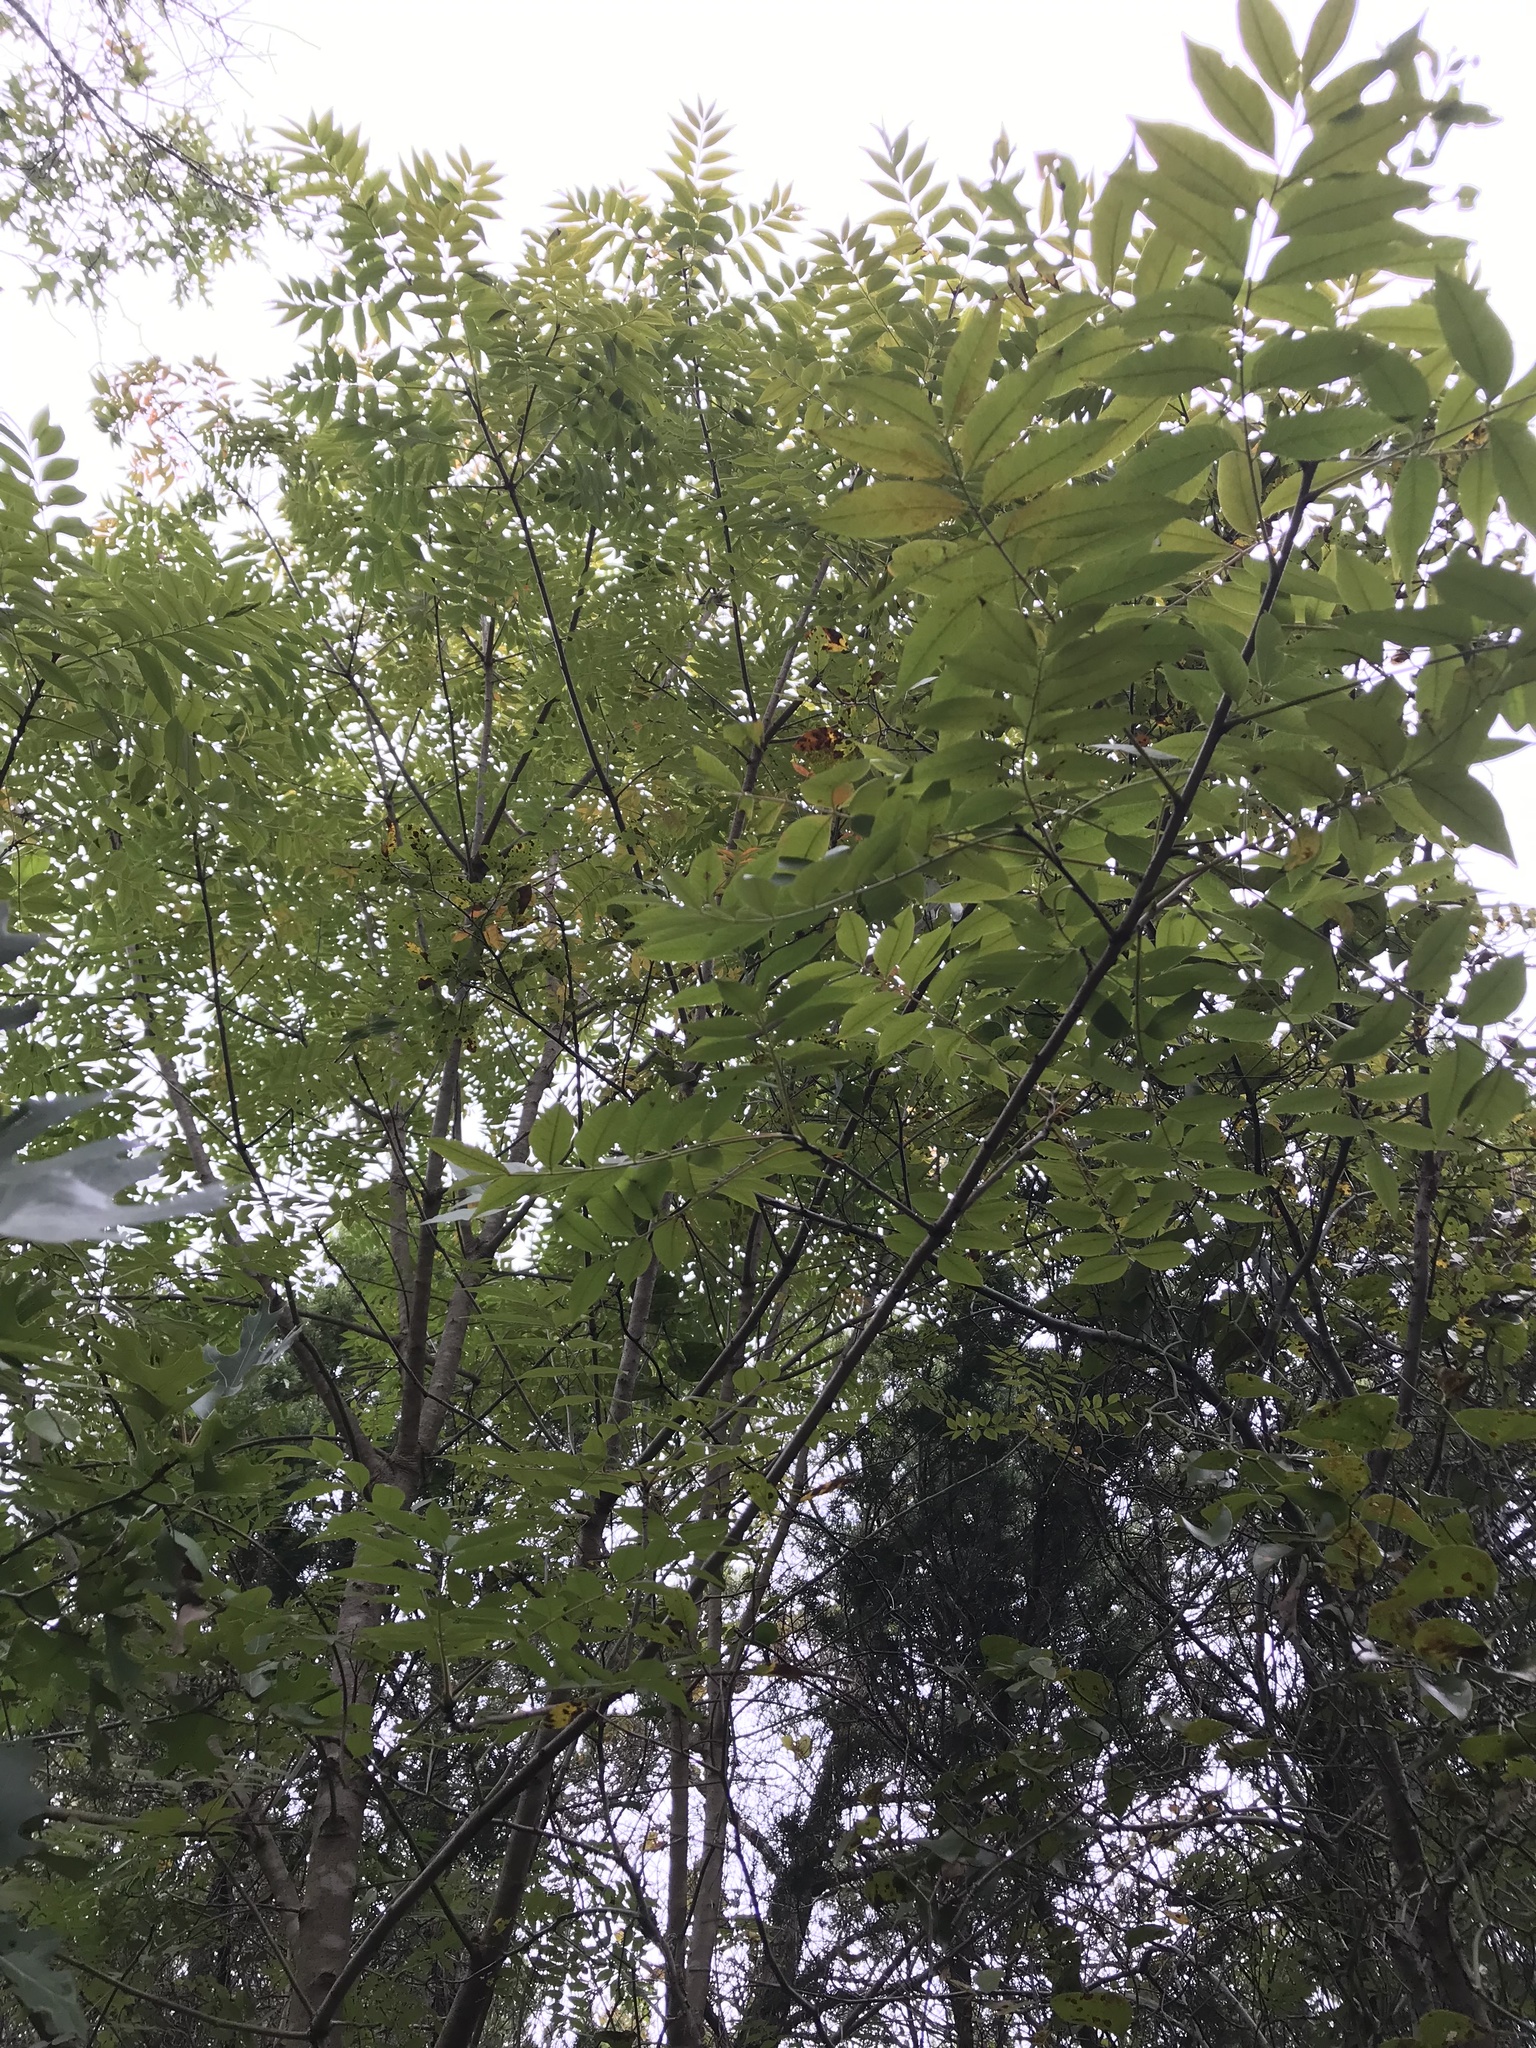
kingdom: Plantae
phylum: Tracheophyta
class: Magnoliopsida
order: Sapindales
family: Anacardiaceae
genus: Pistacia
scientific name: Pistacia chinensis
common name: Chinese pistache
